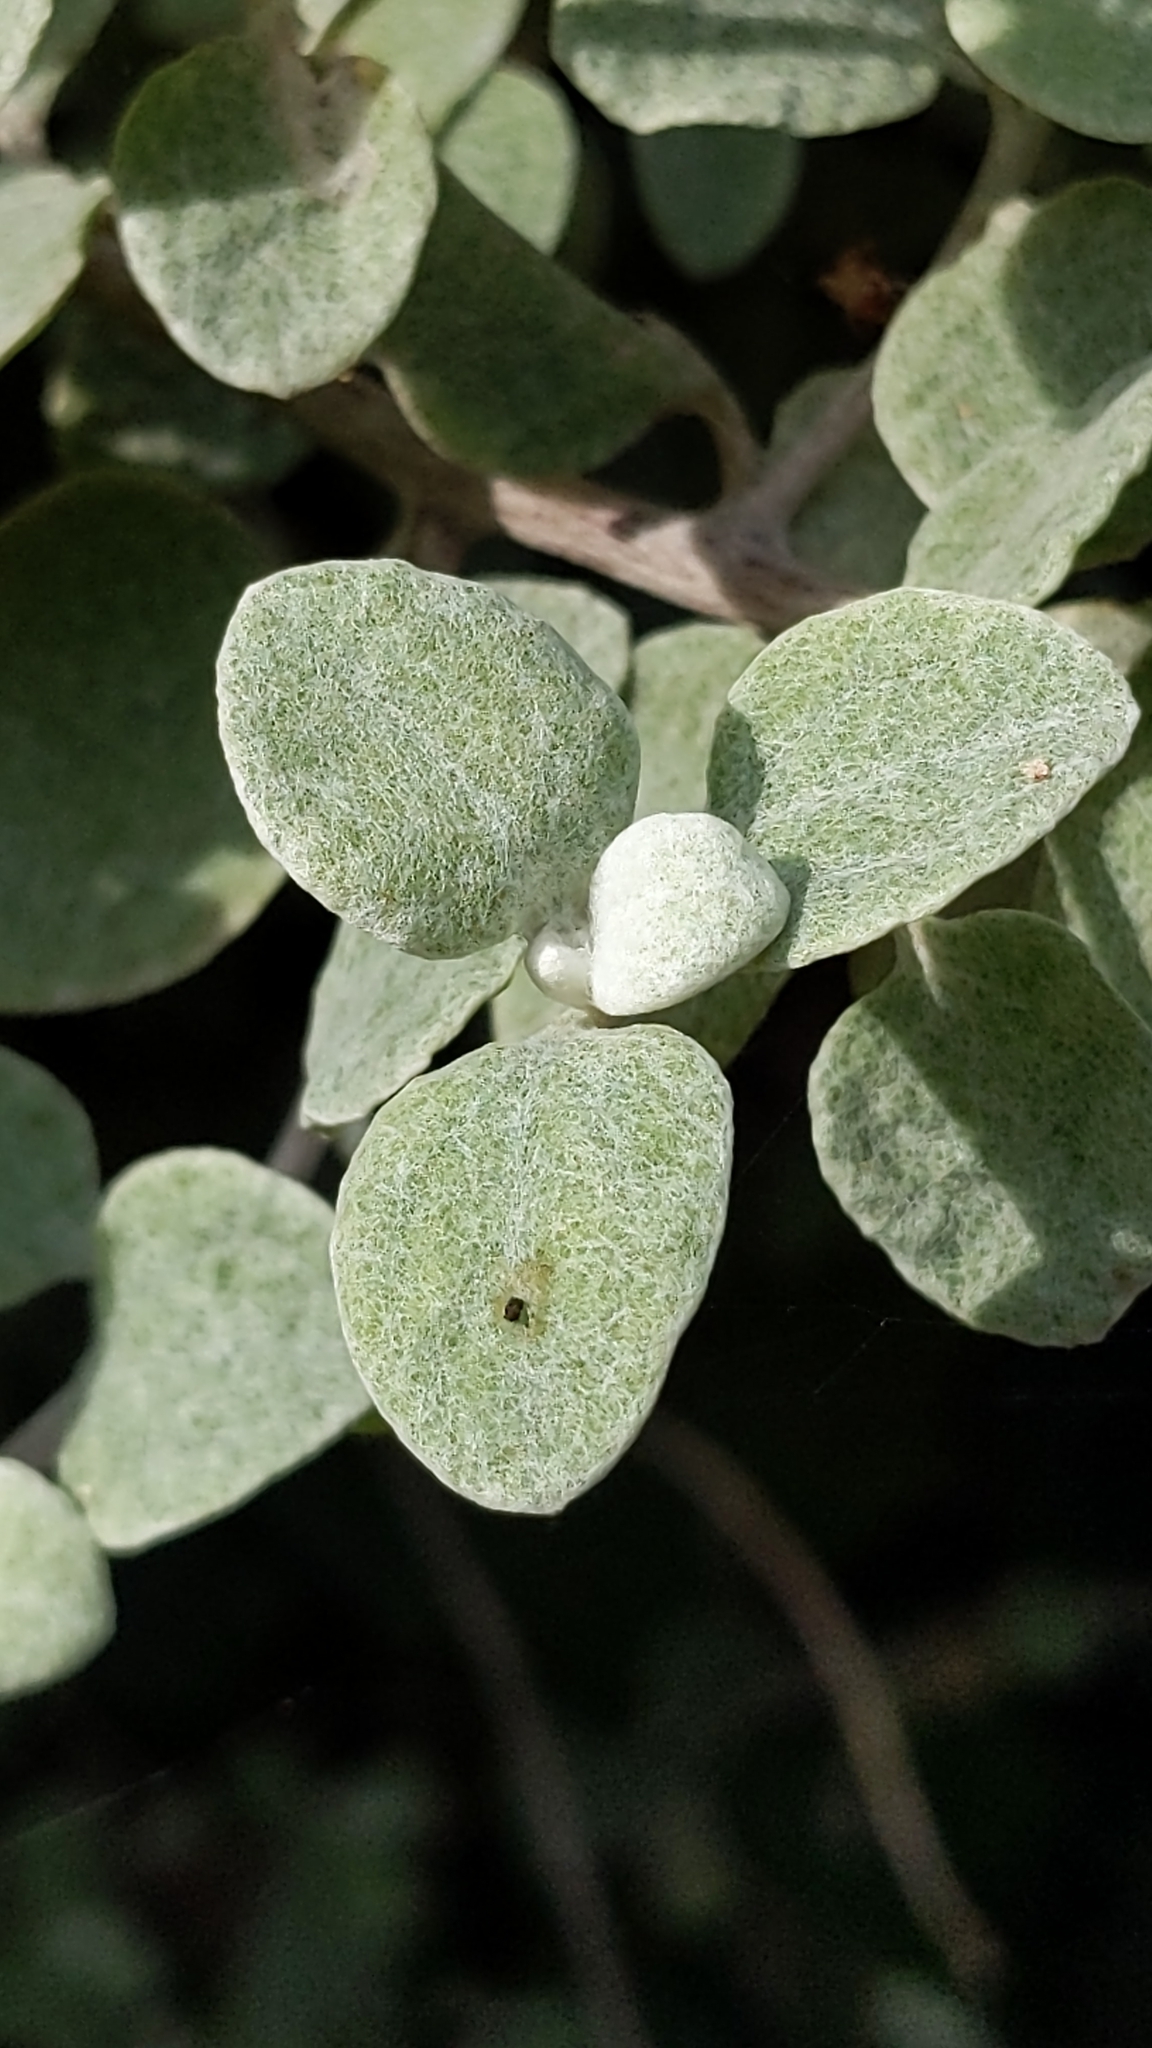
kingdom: Plantae
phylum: Tracheophyta
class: Magnoliopsida
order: Asterales
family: Asteraceae
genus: Helichrysum
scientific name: Helichrysum petiolare
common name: Licorice-plant
